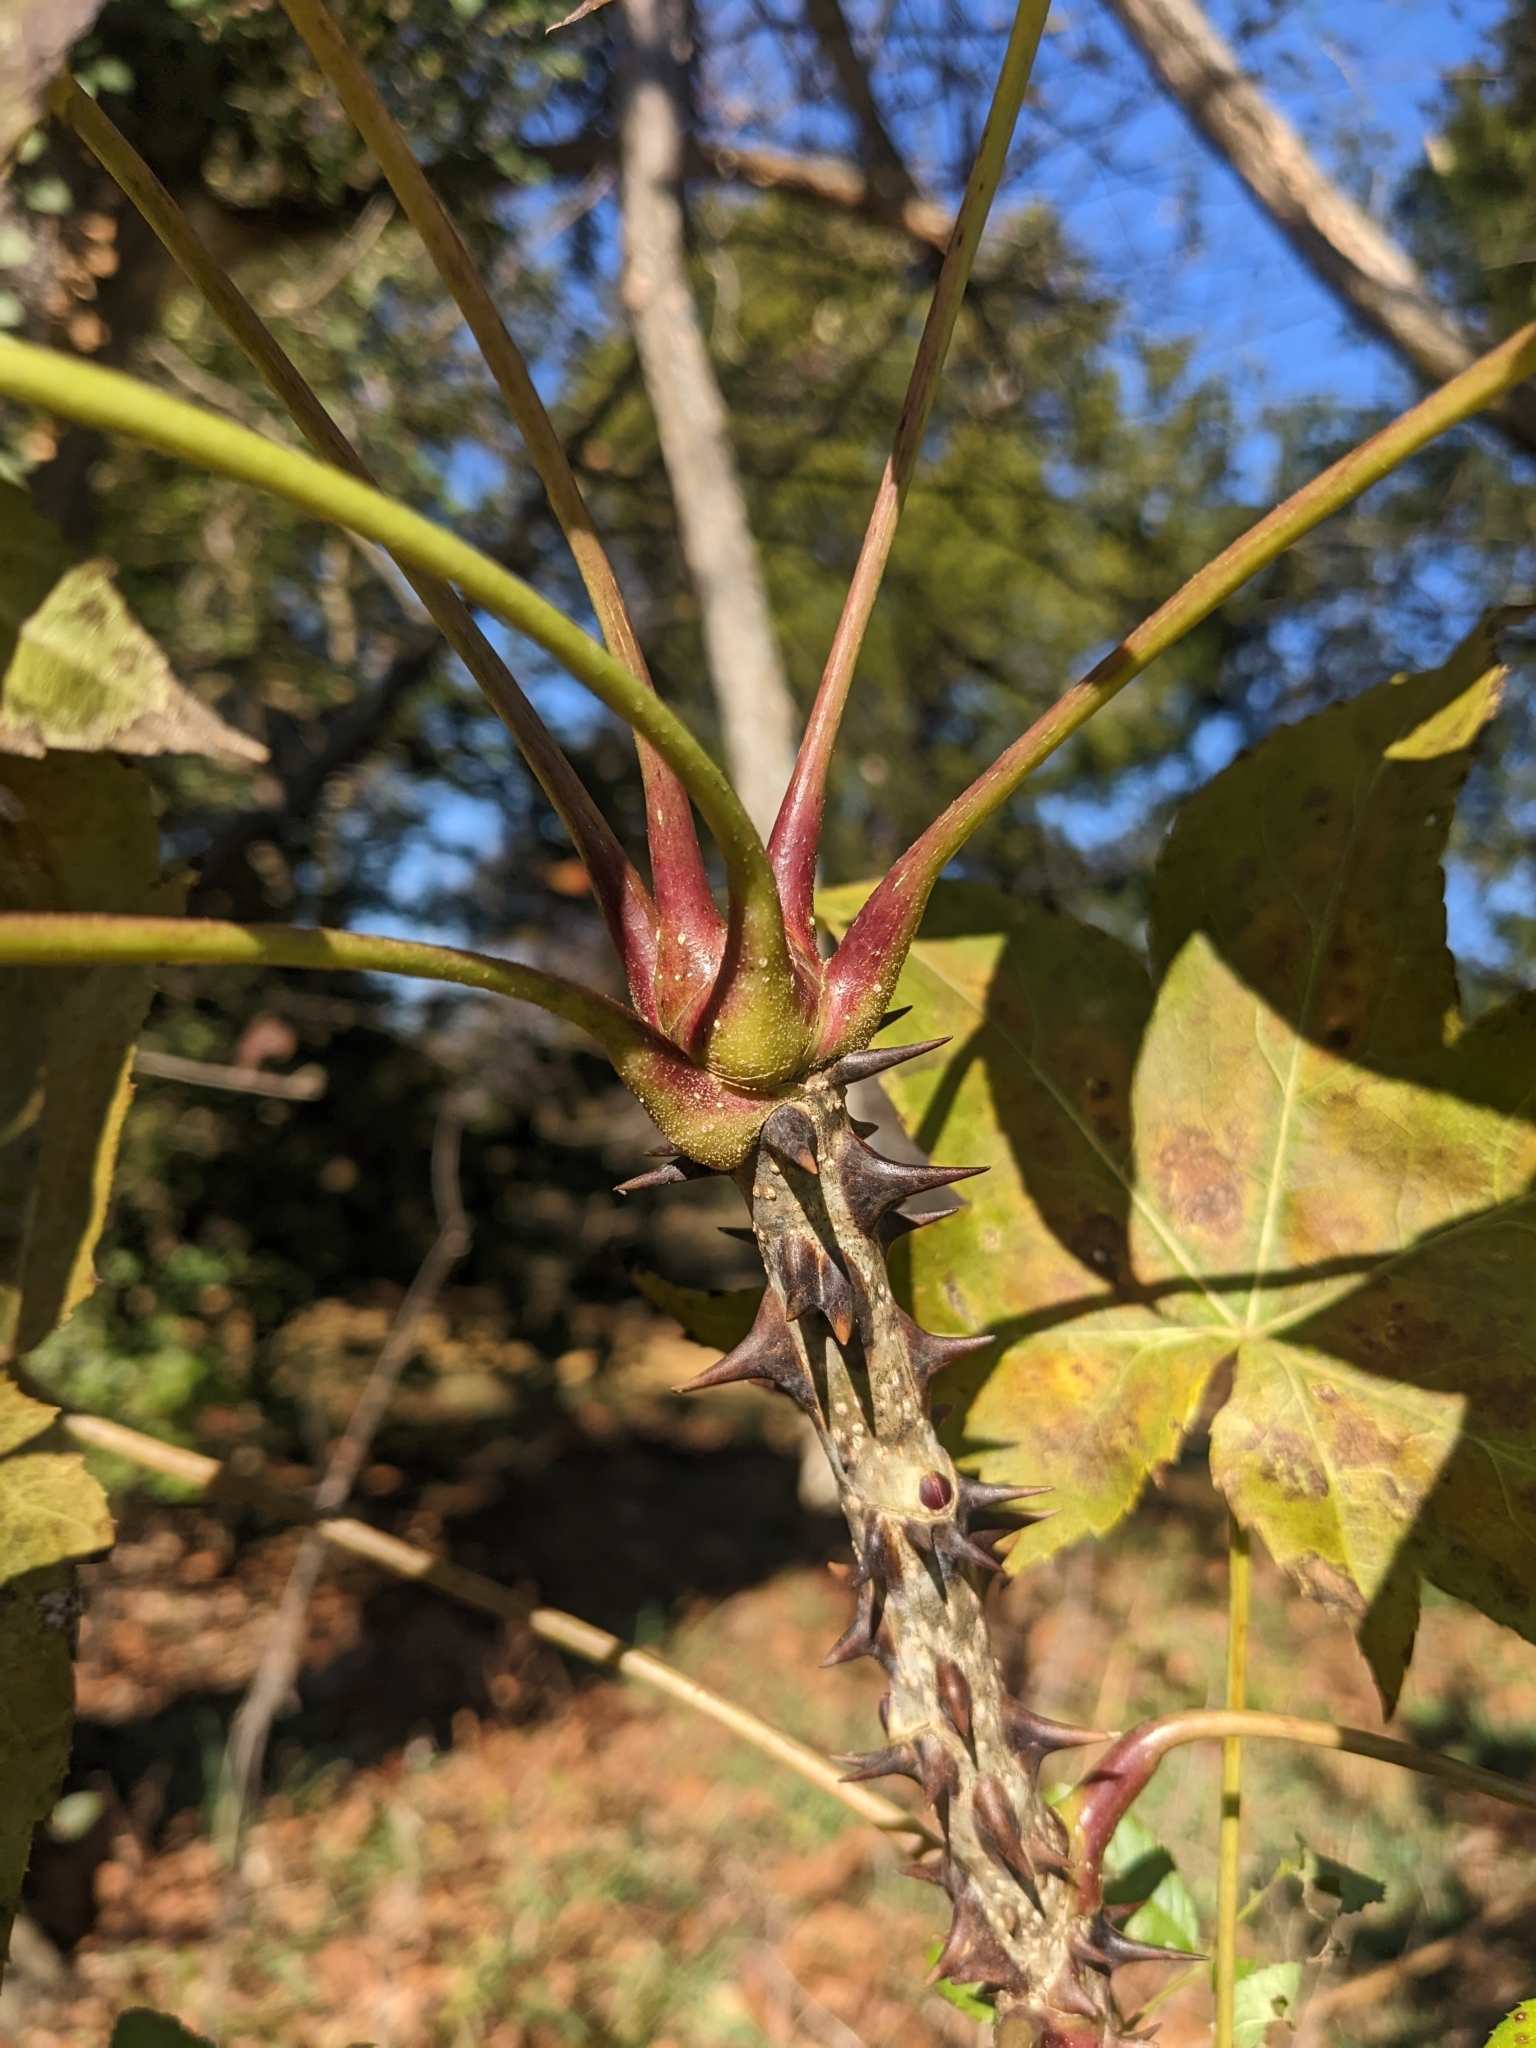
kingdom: Plantae
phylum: Tracheophyta
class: Magnoliopsida
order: Apiales
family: Araliaceae
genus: Kalopanax
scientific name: Kalopanax septemlobus
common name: Castor aralia
